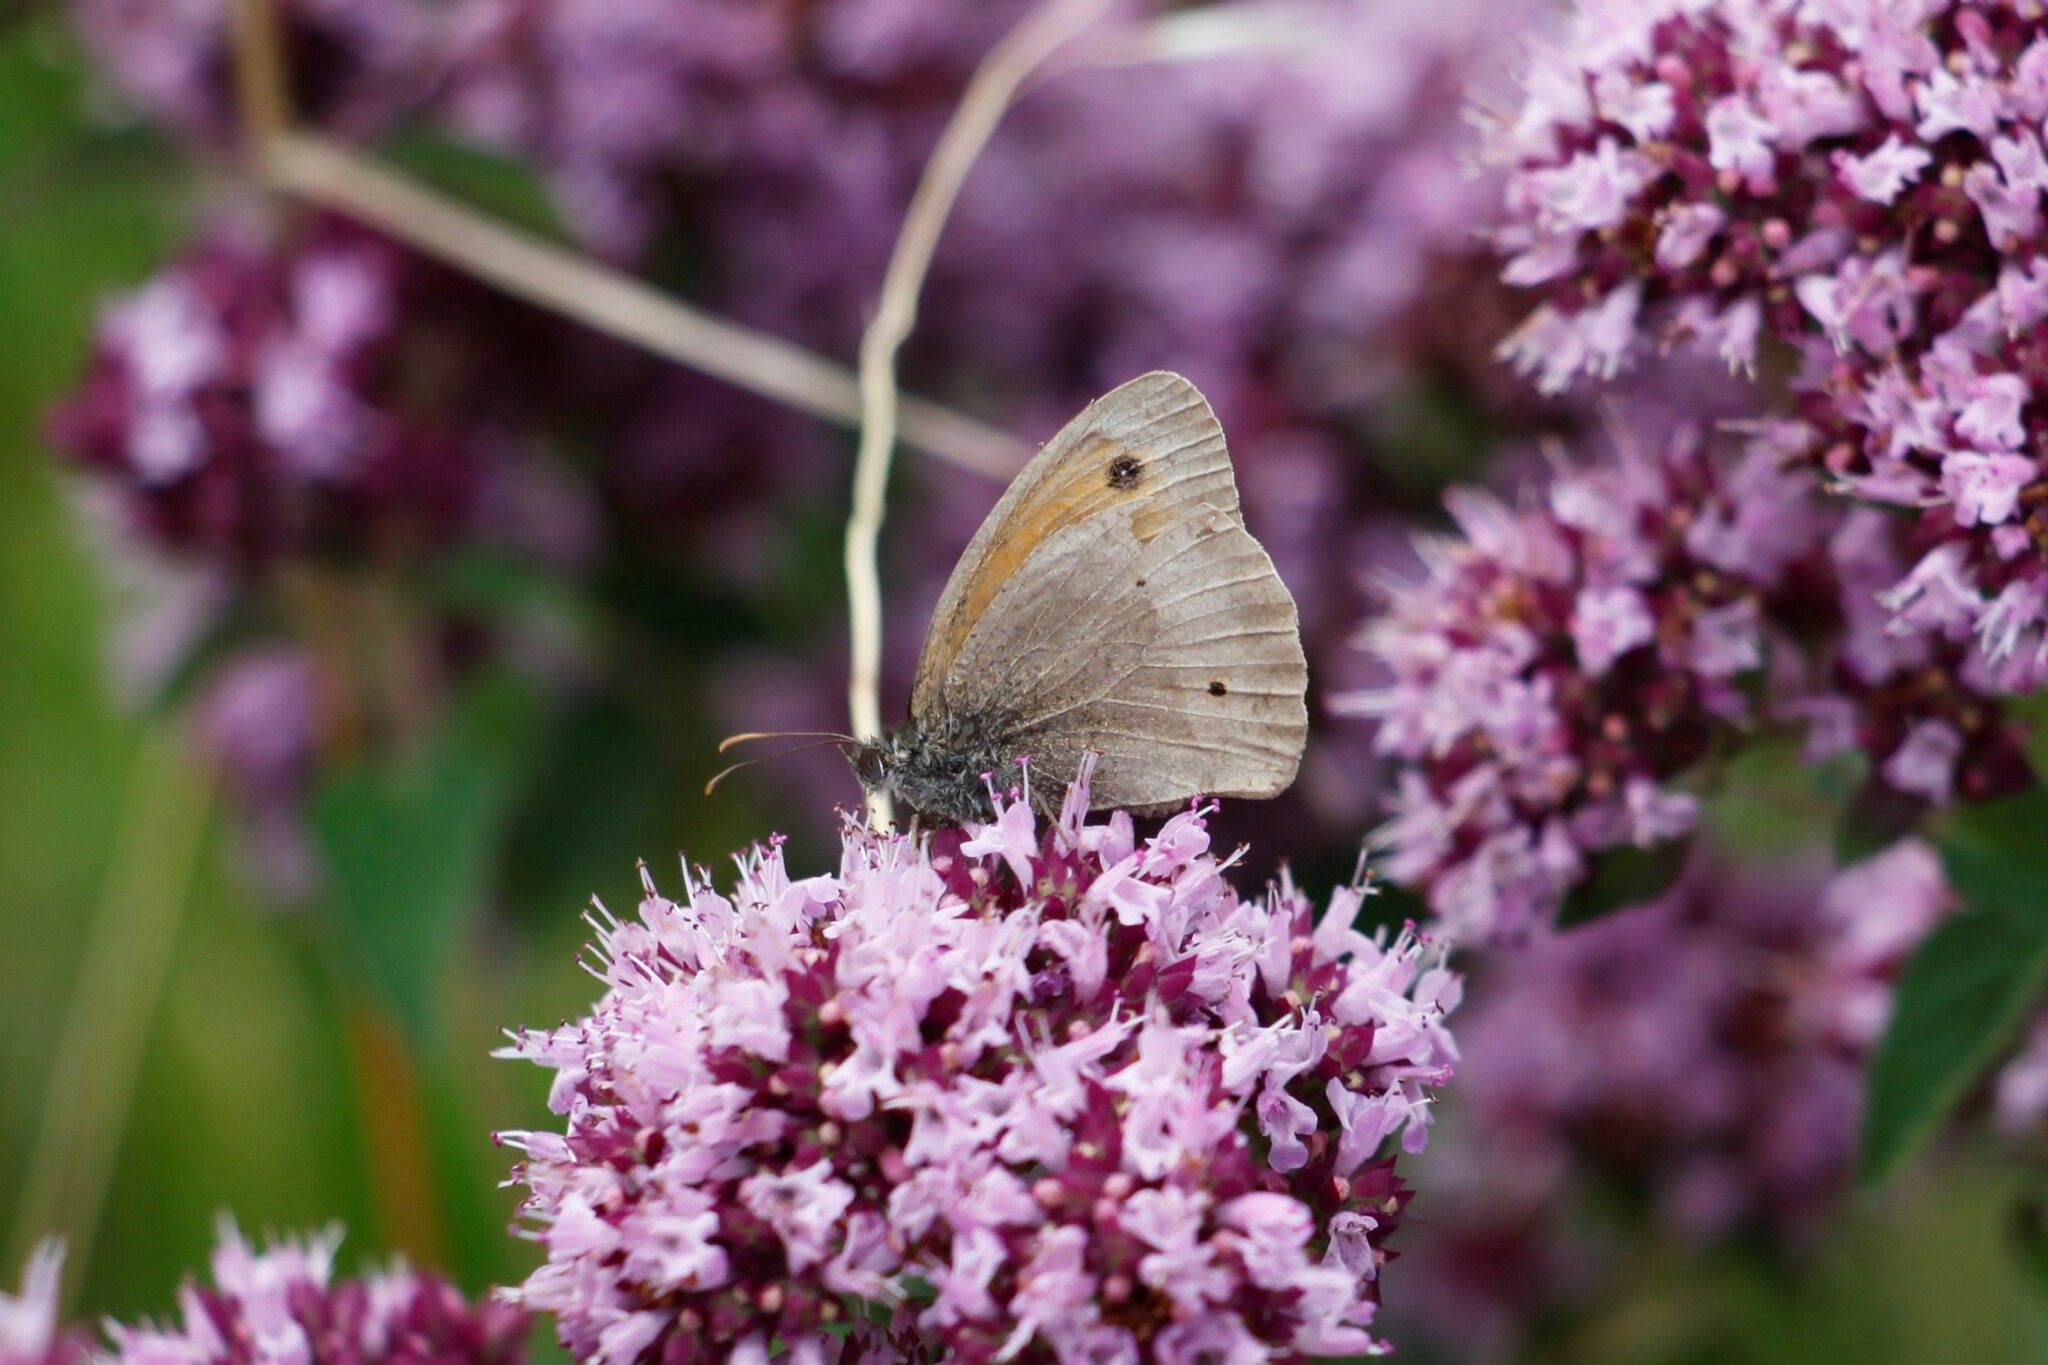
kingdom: Animalia
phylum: Arthropoda
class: Insecta
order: Lepidoptera
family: Nymphalidae
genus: Maniola
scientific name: Maniola jurtina
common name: Meadow brown
